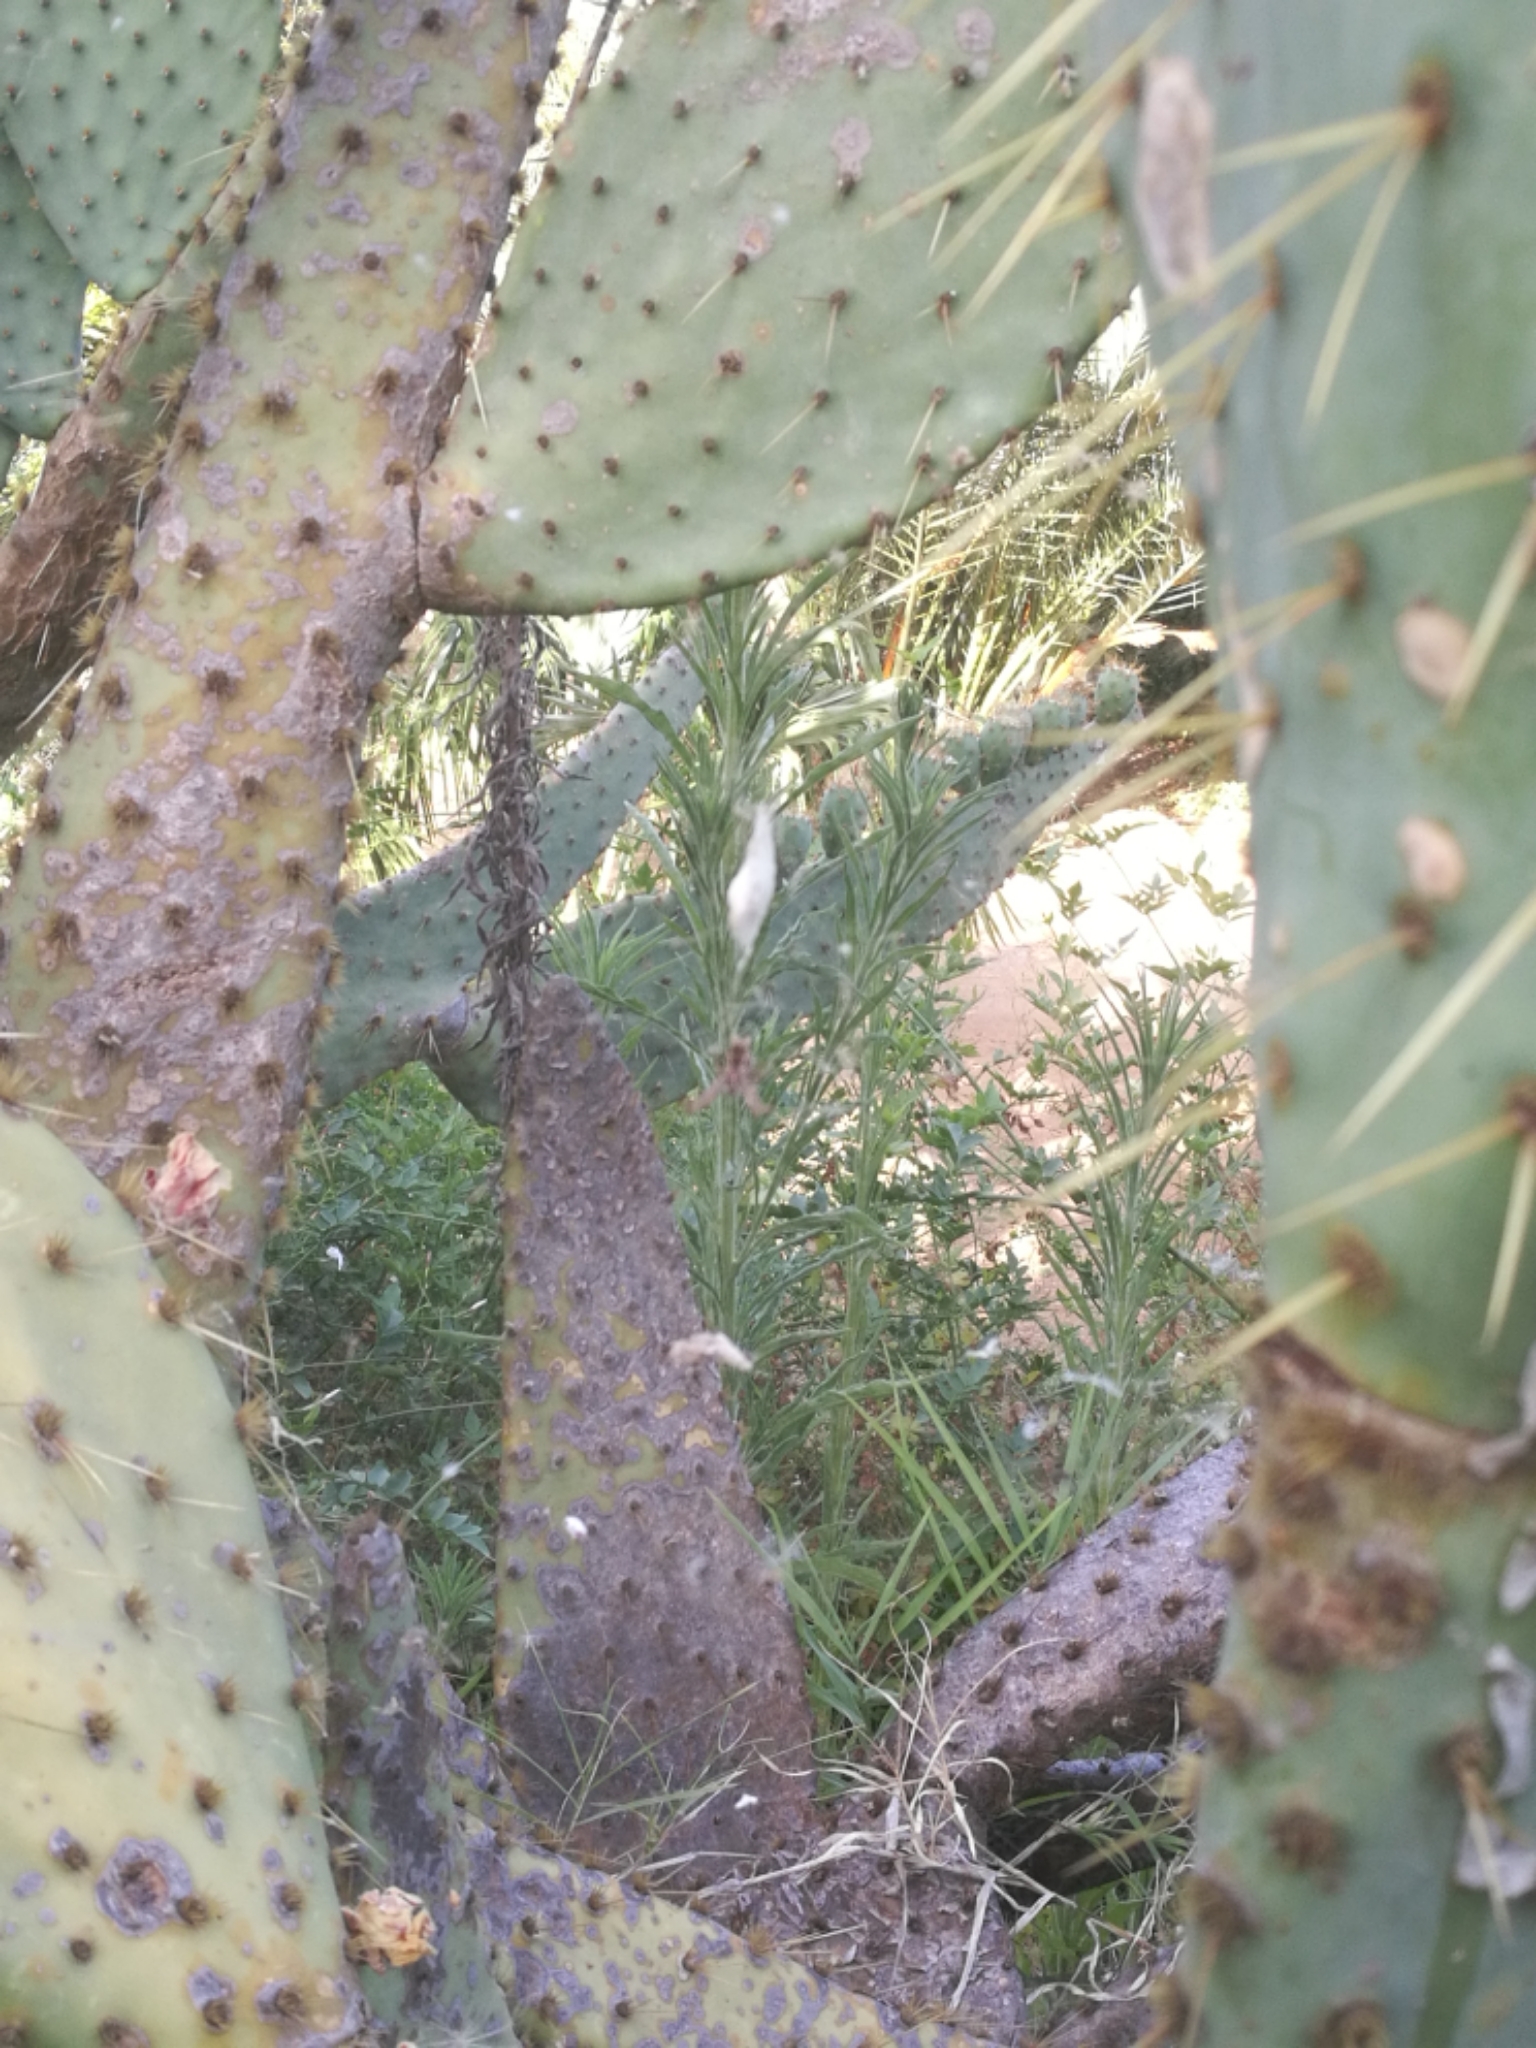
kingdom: Animalia
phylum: Arthropoda
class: Arachnida
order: Araneae
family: Araneidae
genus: Cyrtophora
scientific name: Cyrtophora citricola
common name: Orb weavers
